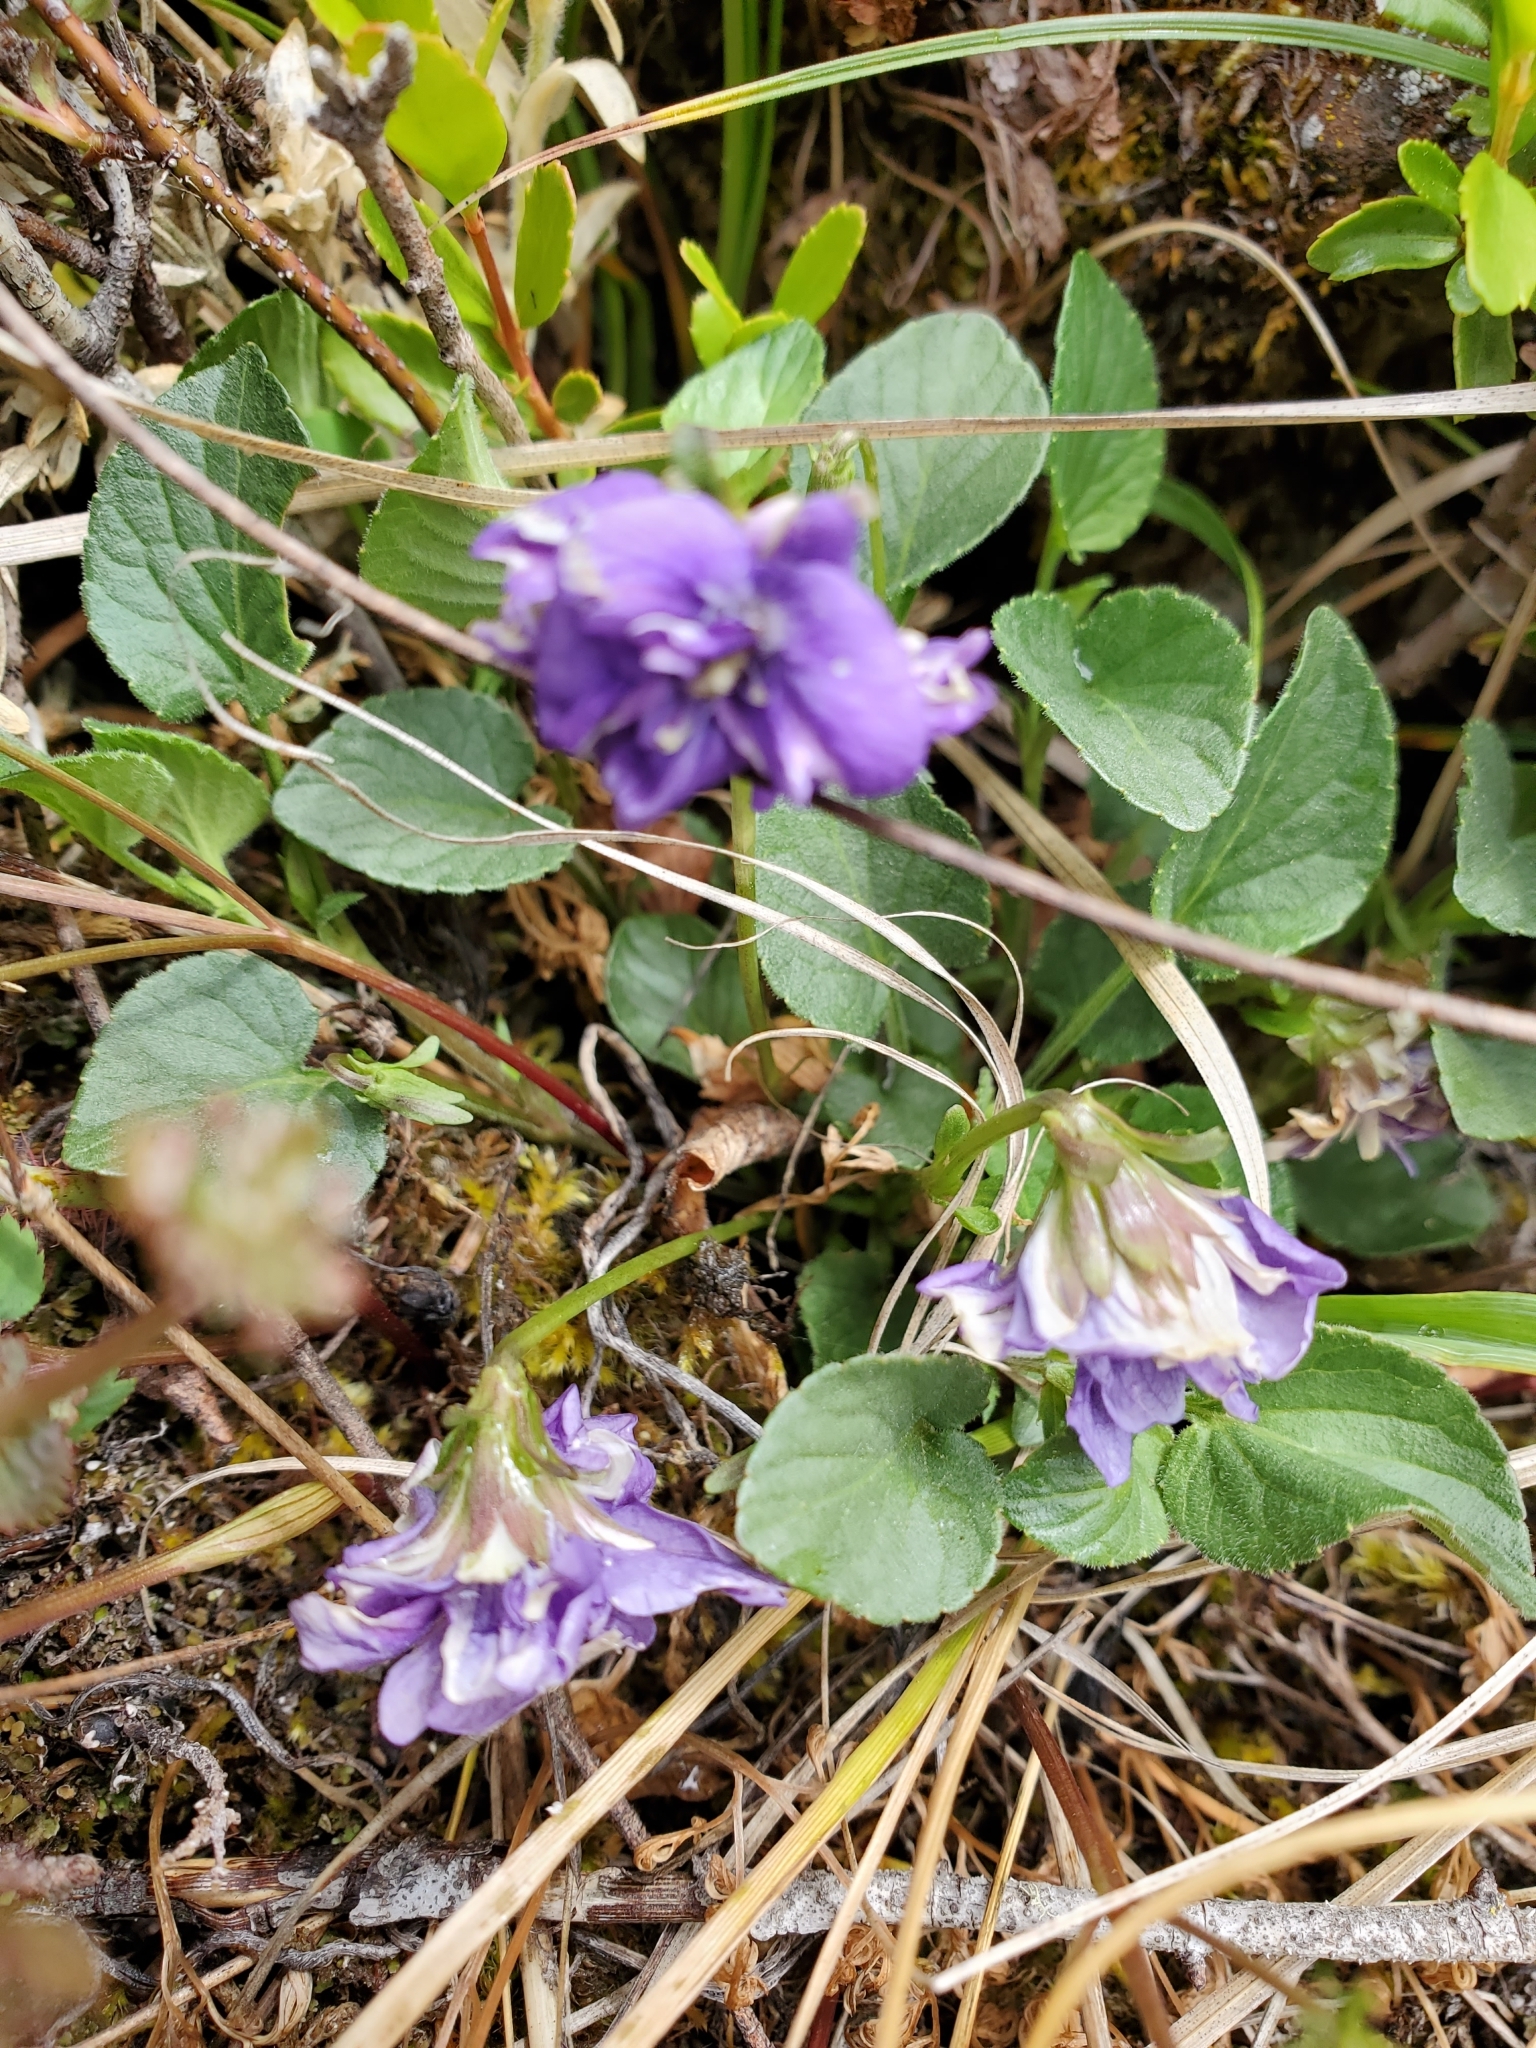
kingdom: Plantae
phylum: Tracheophyta
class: Magnoliopsida
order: Malpighiales
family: Violaceae
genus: Viola
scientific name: Viola adunca
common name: Sand violet
